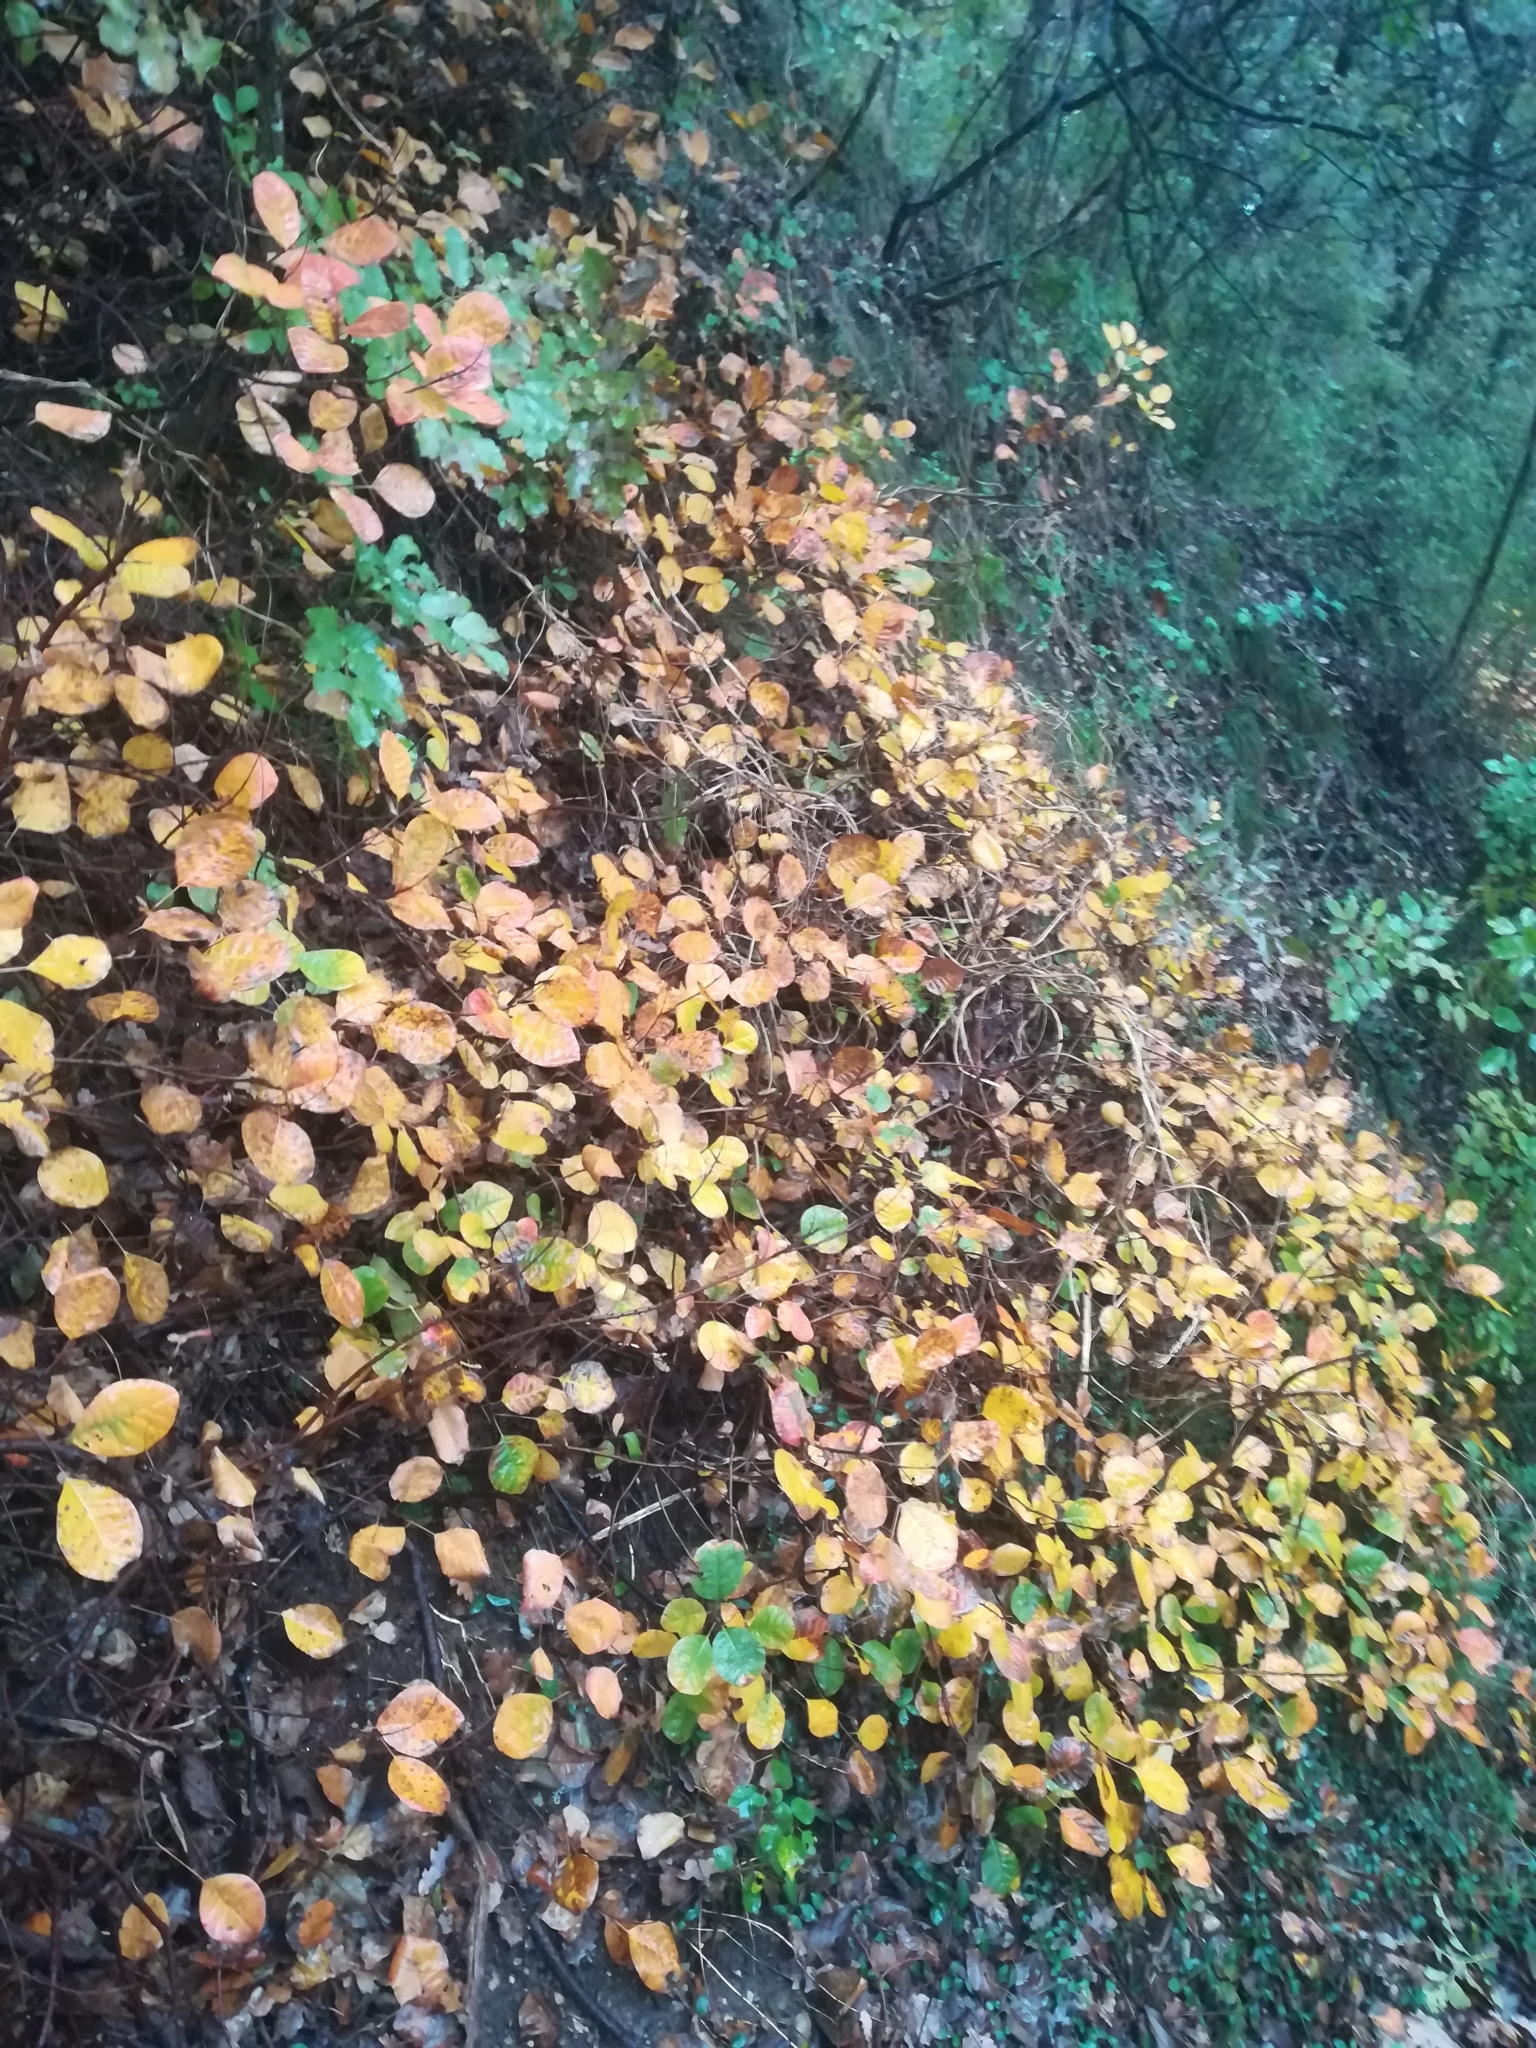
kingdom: Plantae
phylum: Tracheophyta
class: Magnoliopsida
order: Sapindales
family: Anacardiaceae
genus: Cotinus
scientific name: Cotinus coggygria
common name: Smoke-tree
